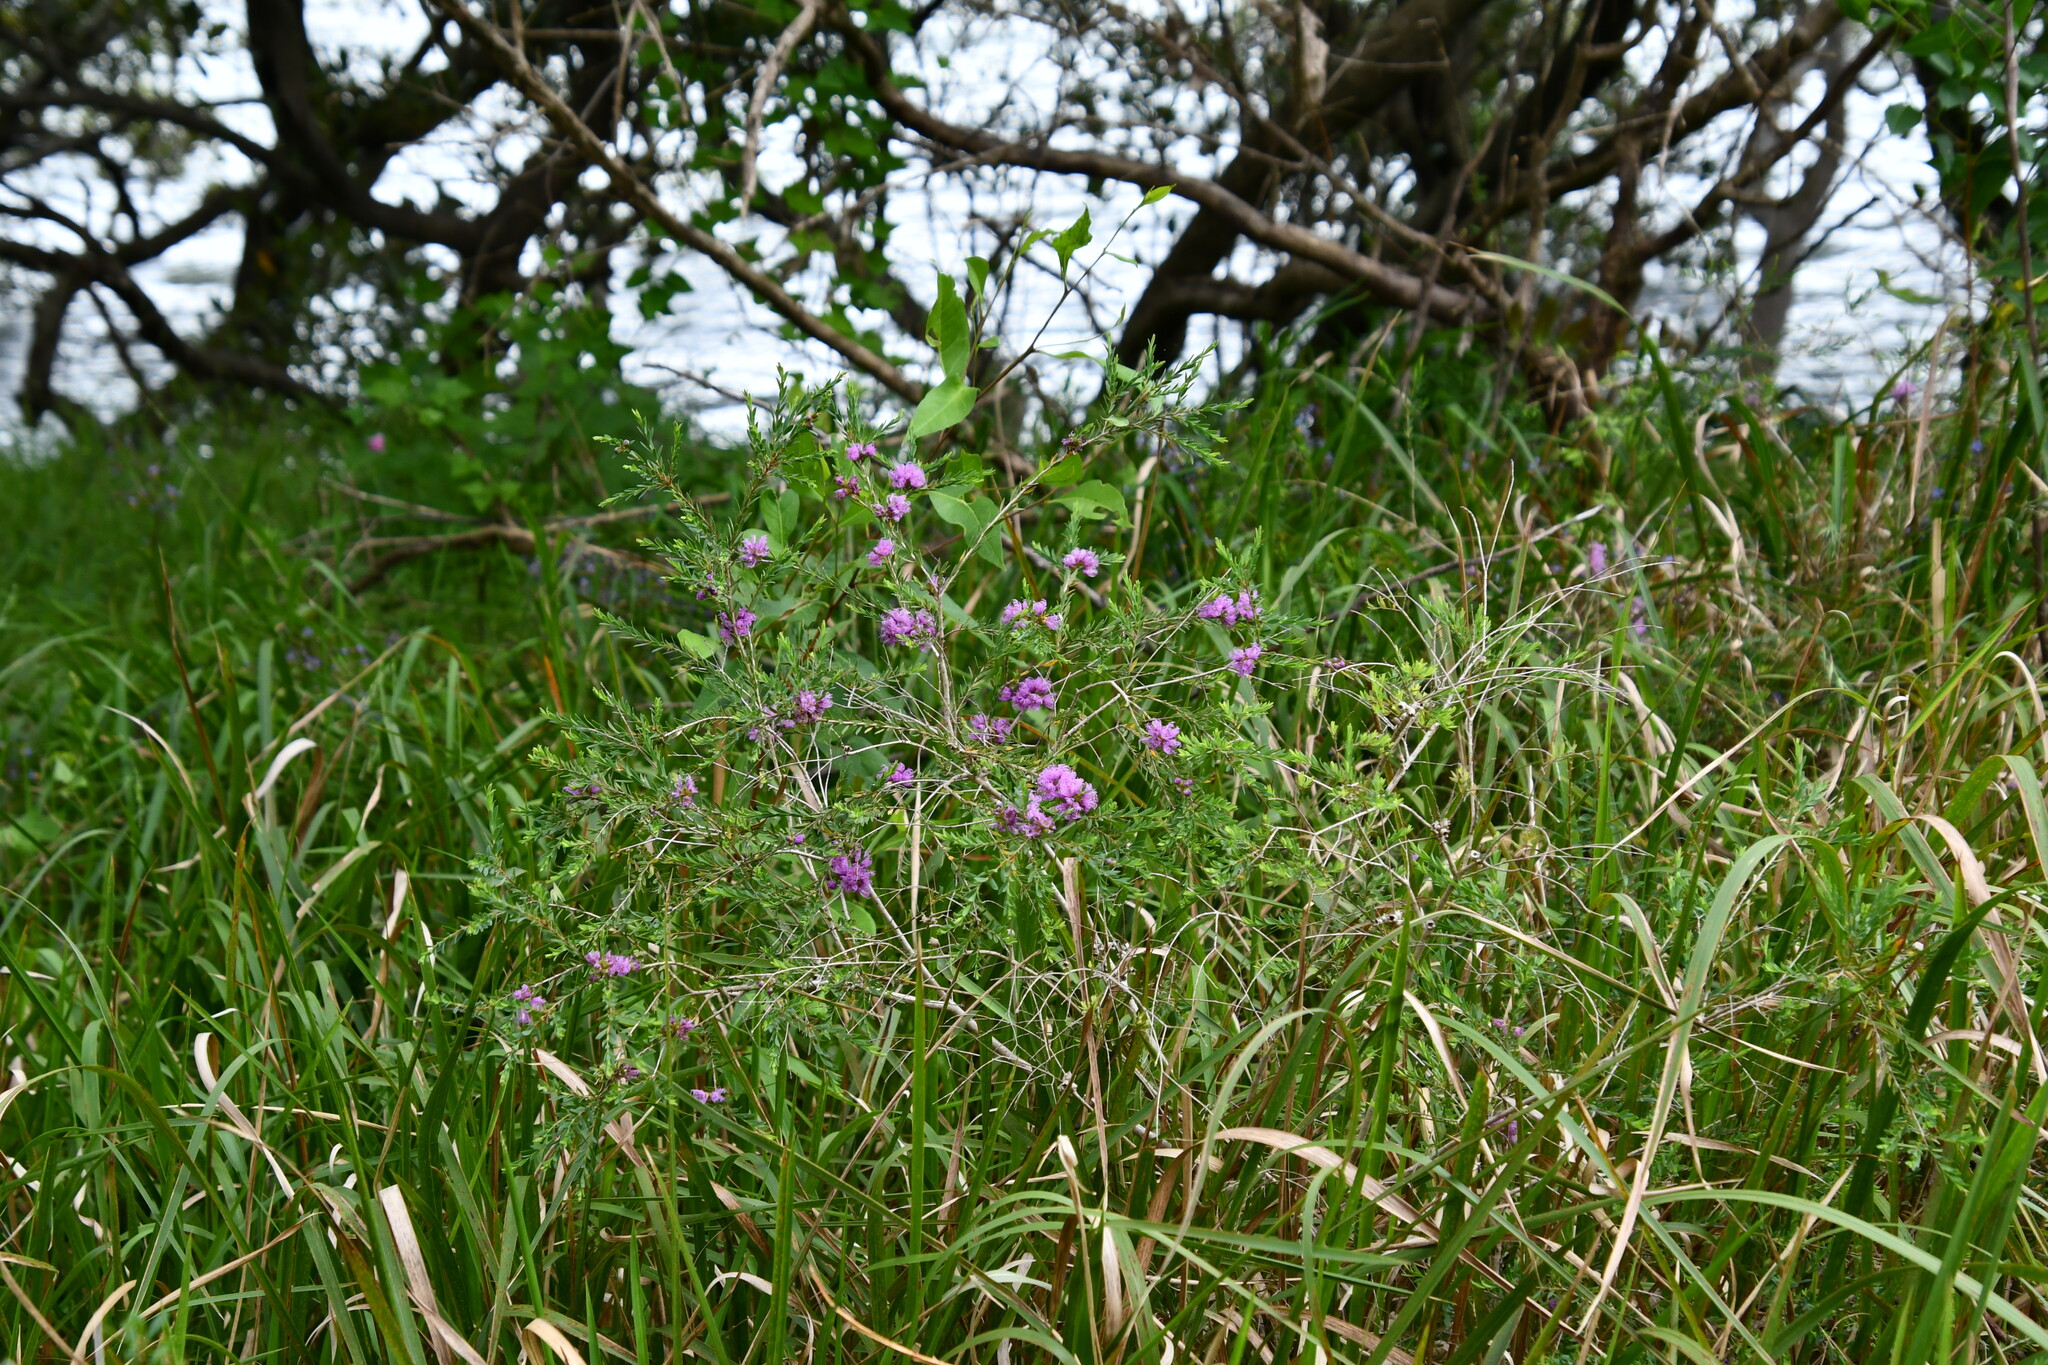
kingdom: Plantae
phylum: Tracheophyta
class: Magnoliopsida
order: Myrtales
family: Myrtaceae
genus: Melaleuca
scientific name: Melaleuca thymifolia
